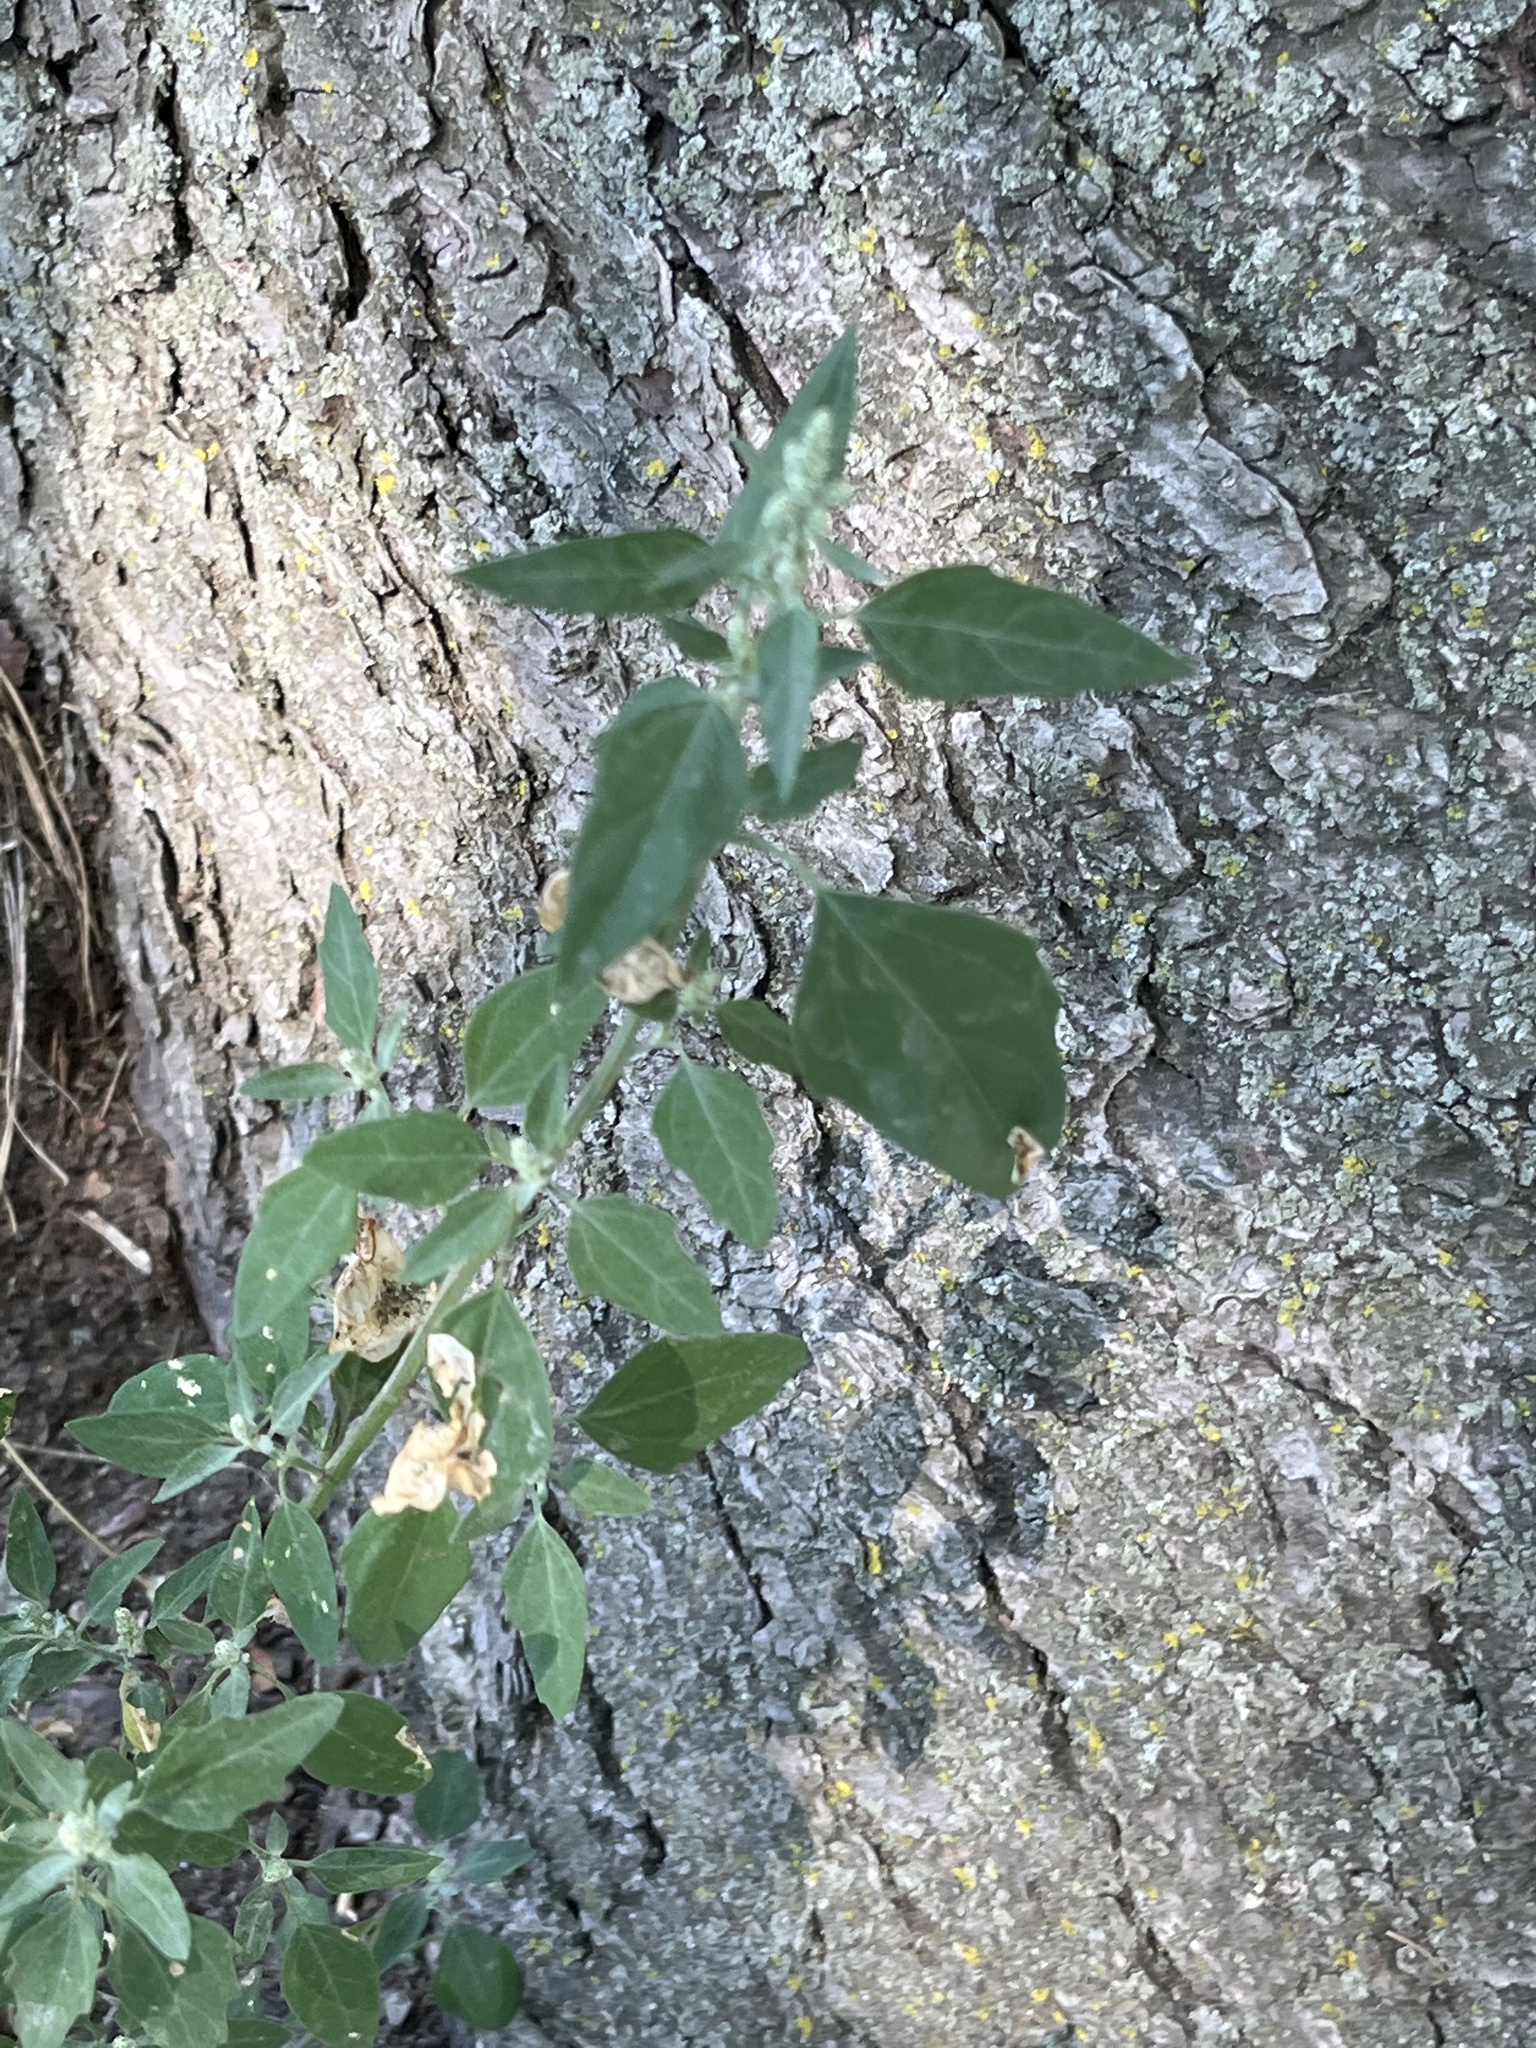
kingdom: Plantae
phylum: Tracheophyta
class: Magnoliopsida
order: Caryophyllales
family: Amaranthaceae
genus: Chenopodium
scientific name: Chenopodium album
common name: Fat-hen
